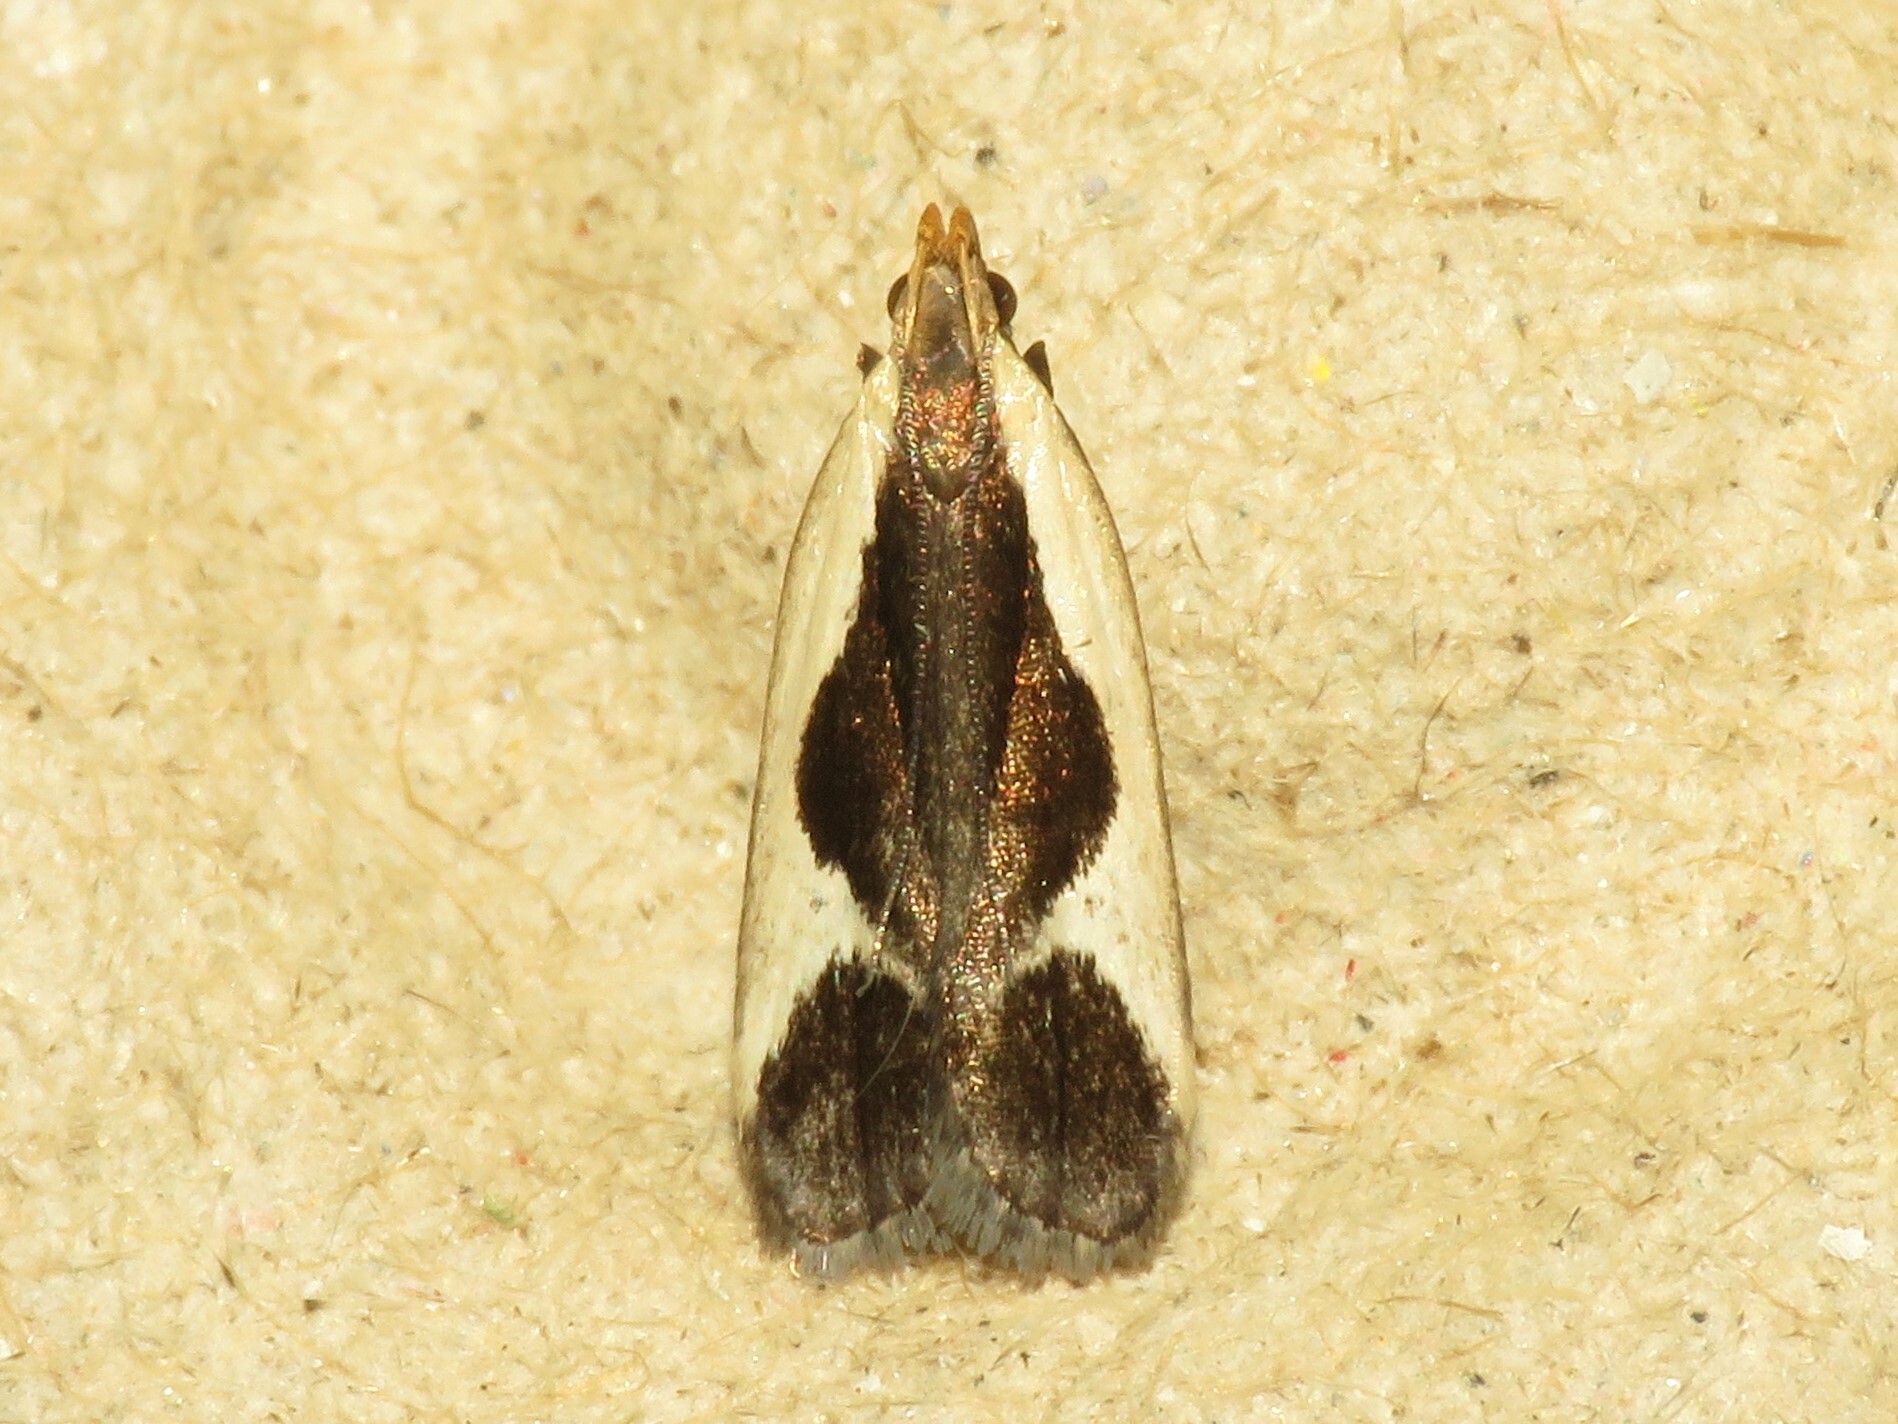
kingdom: Animalia
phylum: Arthropoda
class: Insecta
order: Lepidoptera
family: Gelechiidae
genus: Dichomeris
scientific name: Dichomeris flavocostella
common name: Cream-edged dichomeris moth
